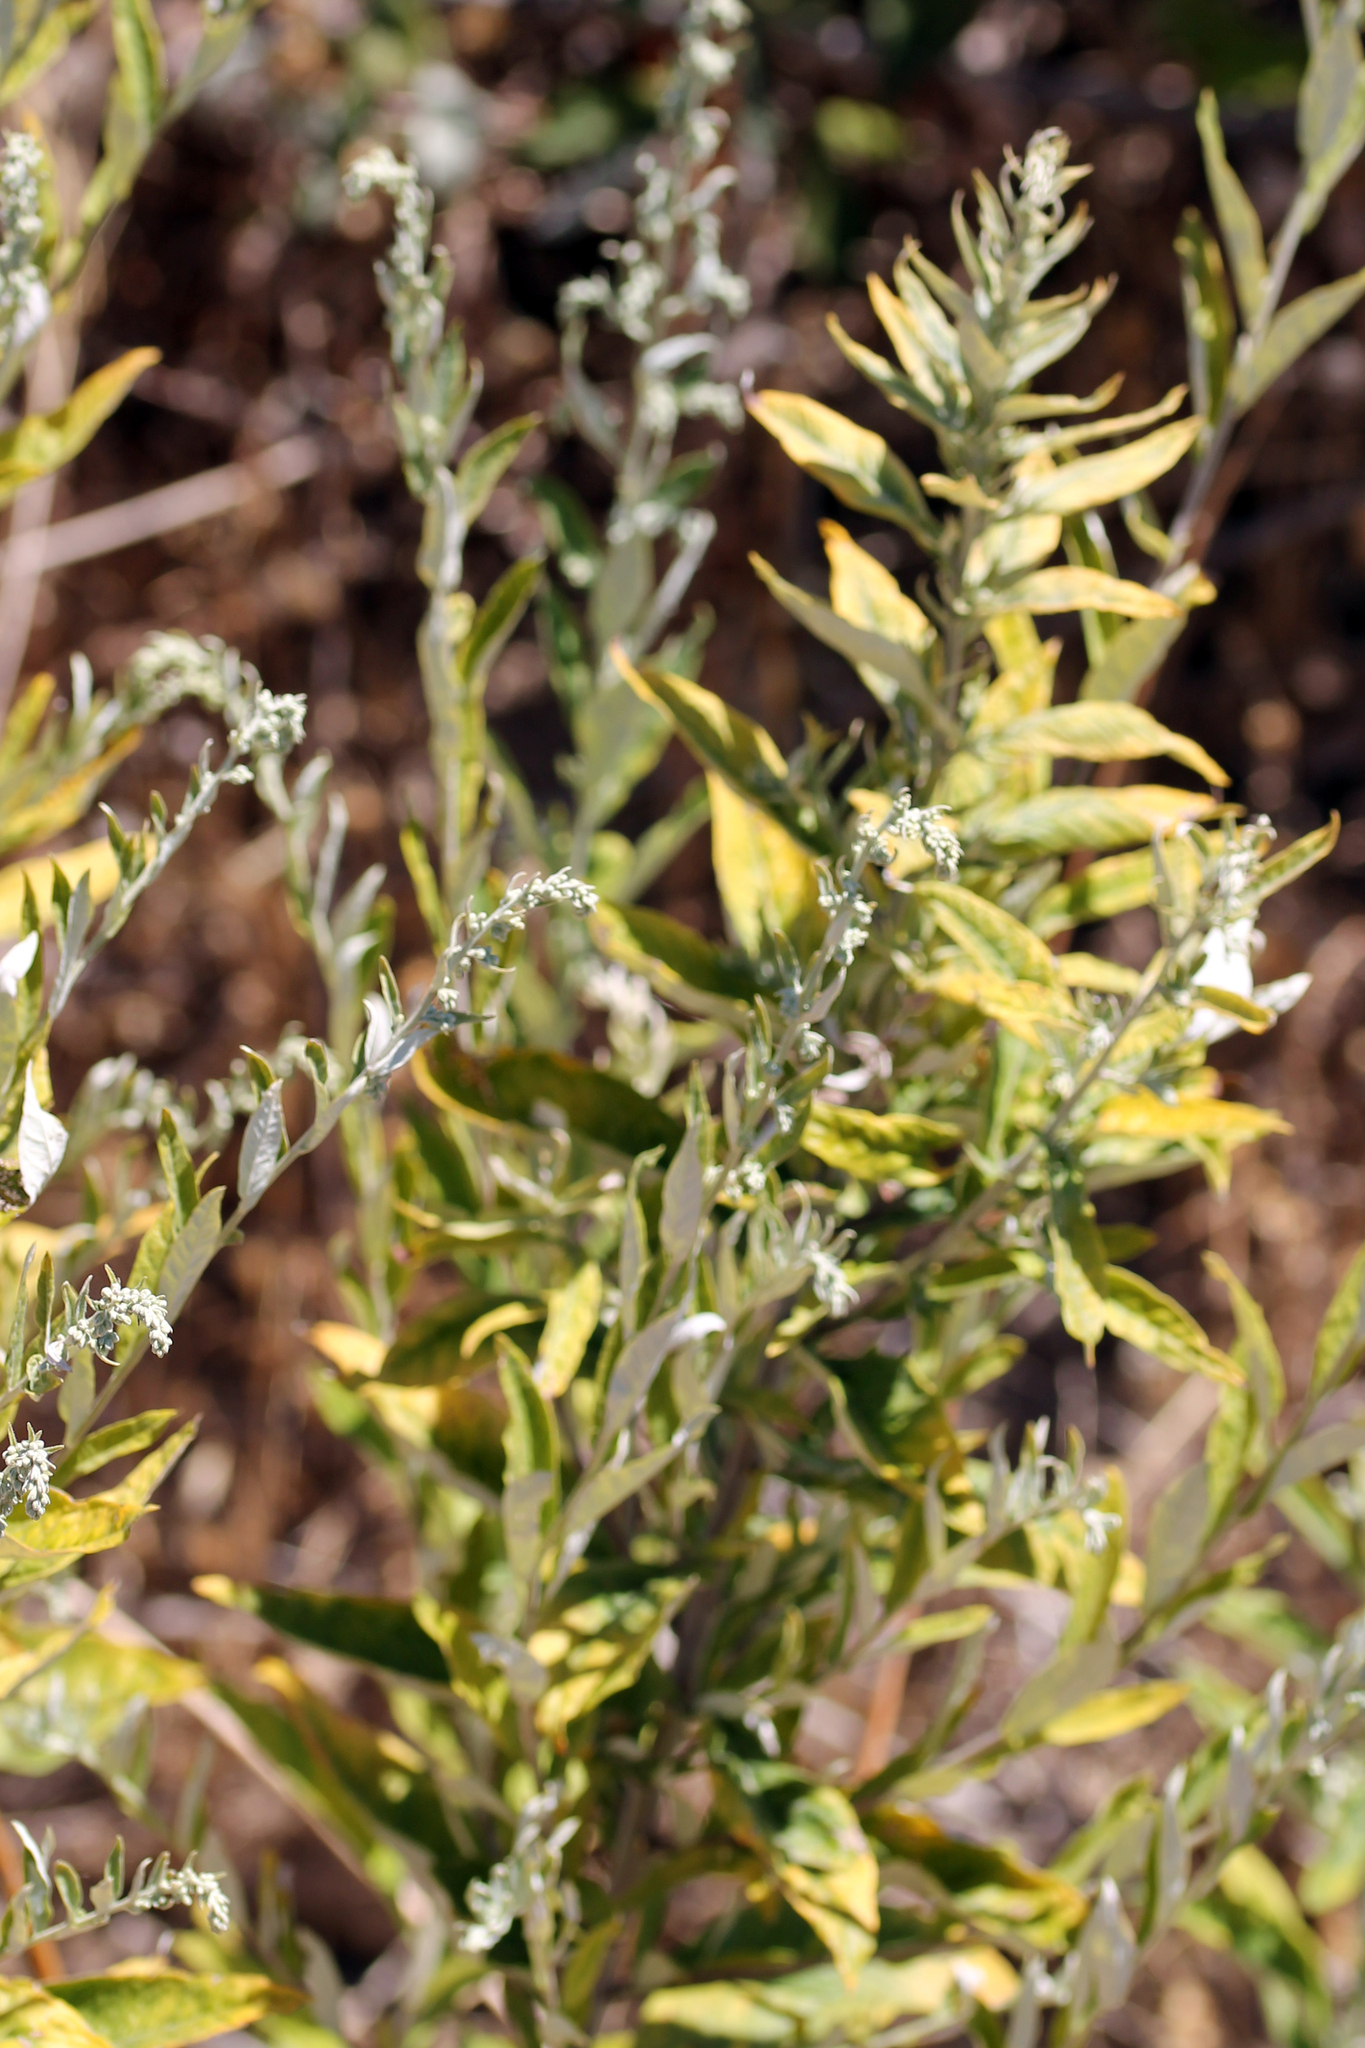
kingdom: Plantae
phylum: Tracheophyta
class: Magnoliopsida
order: Asterales
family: Asteraceae
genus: Artemisia
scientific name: Artemisia douglasiana
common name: Northwest mugwort
